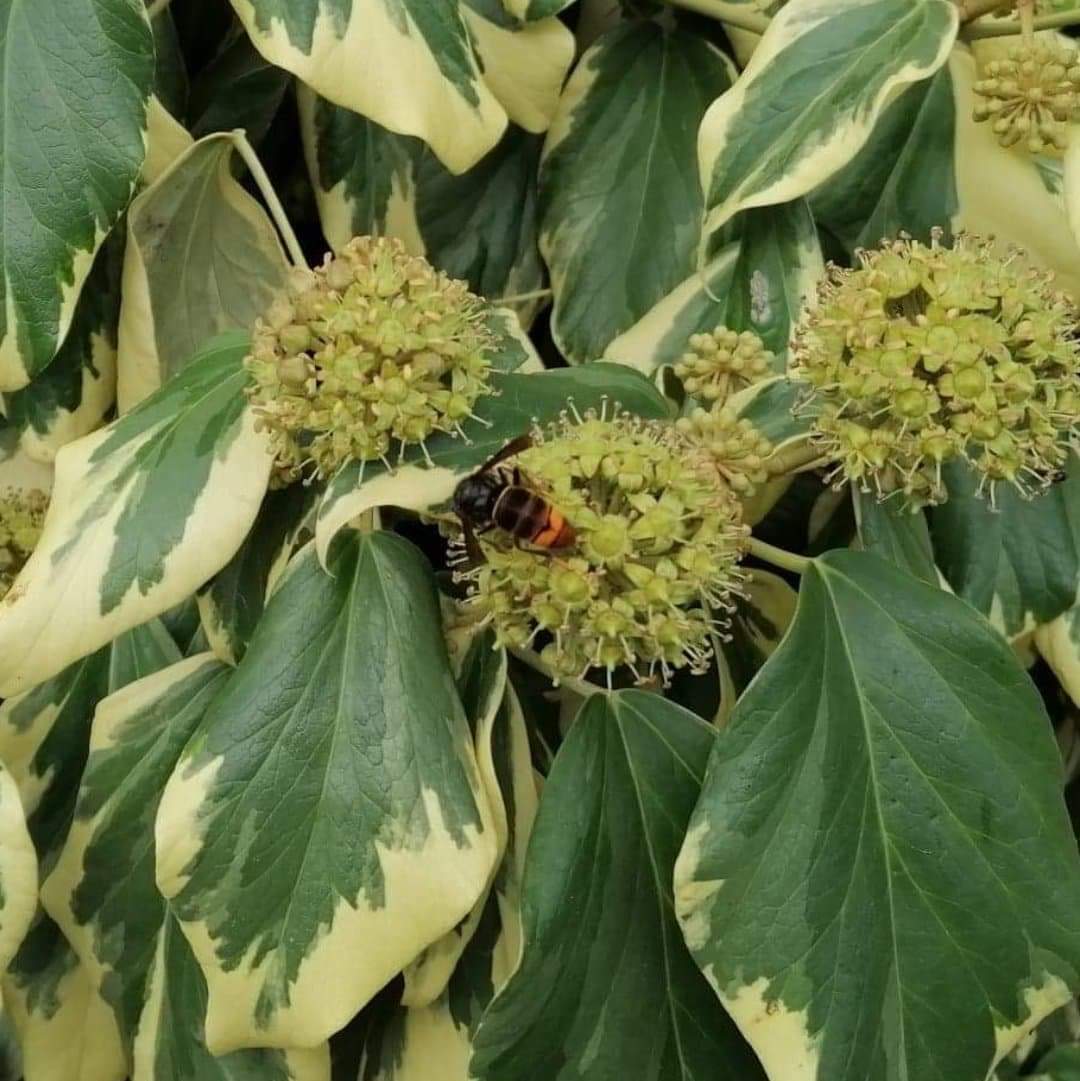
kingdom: Animalia
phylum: Arthropoda
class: Insecta
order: Hymenoptera
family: Vespidae
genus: Vespa
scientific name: Vespa velutina
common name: Asian hornet
